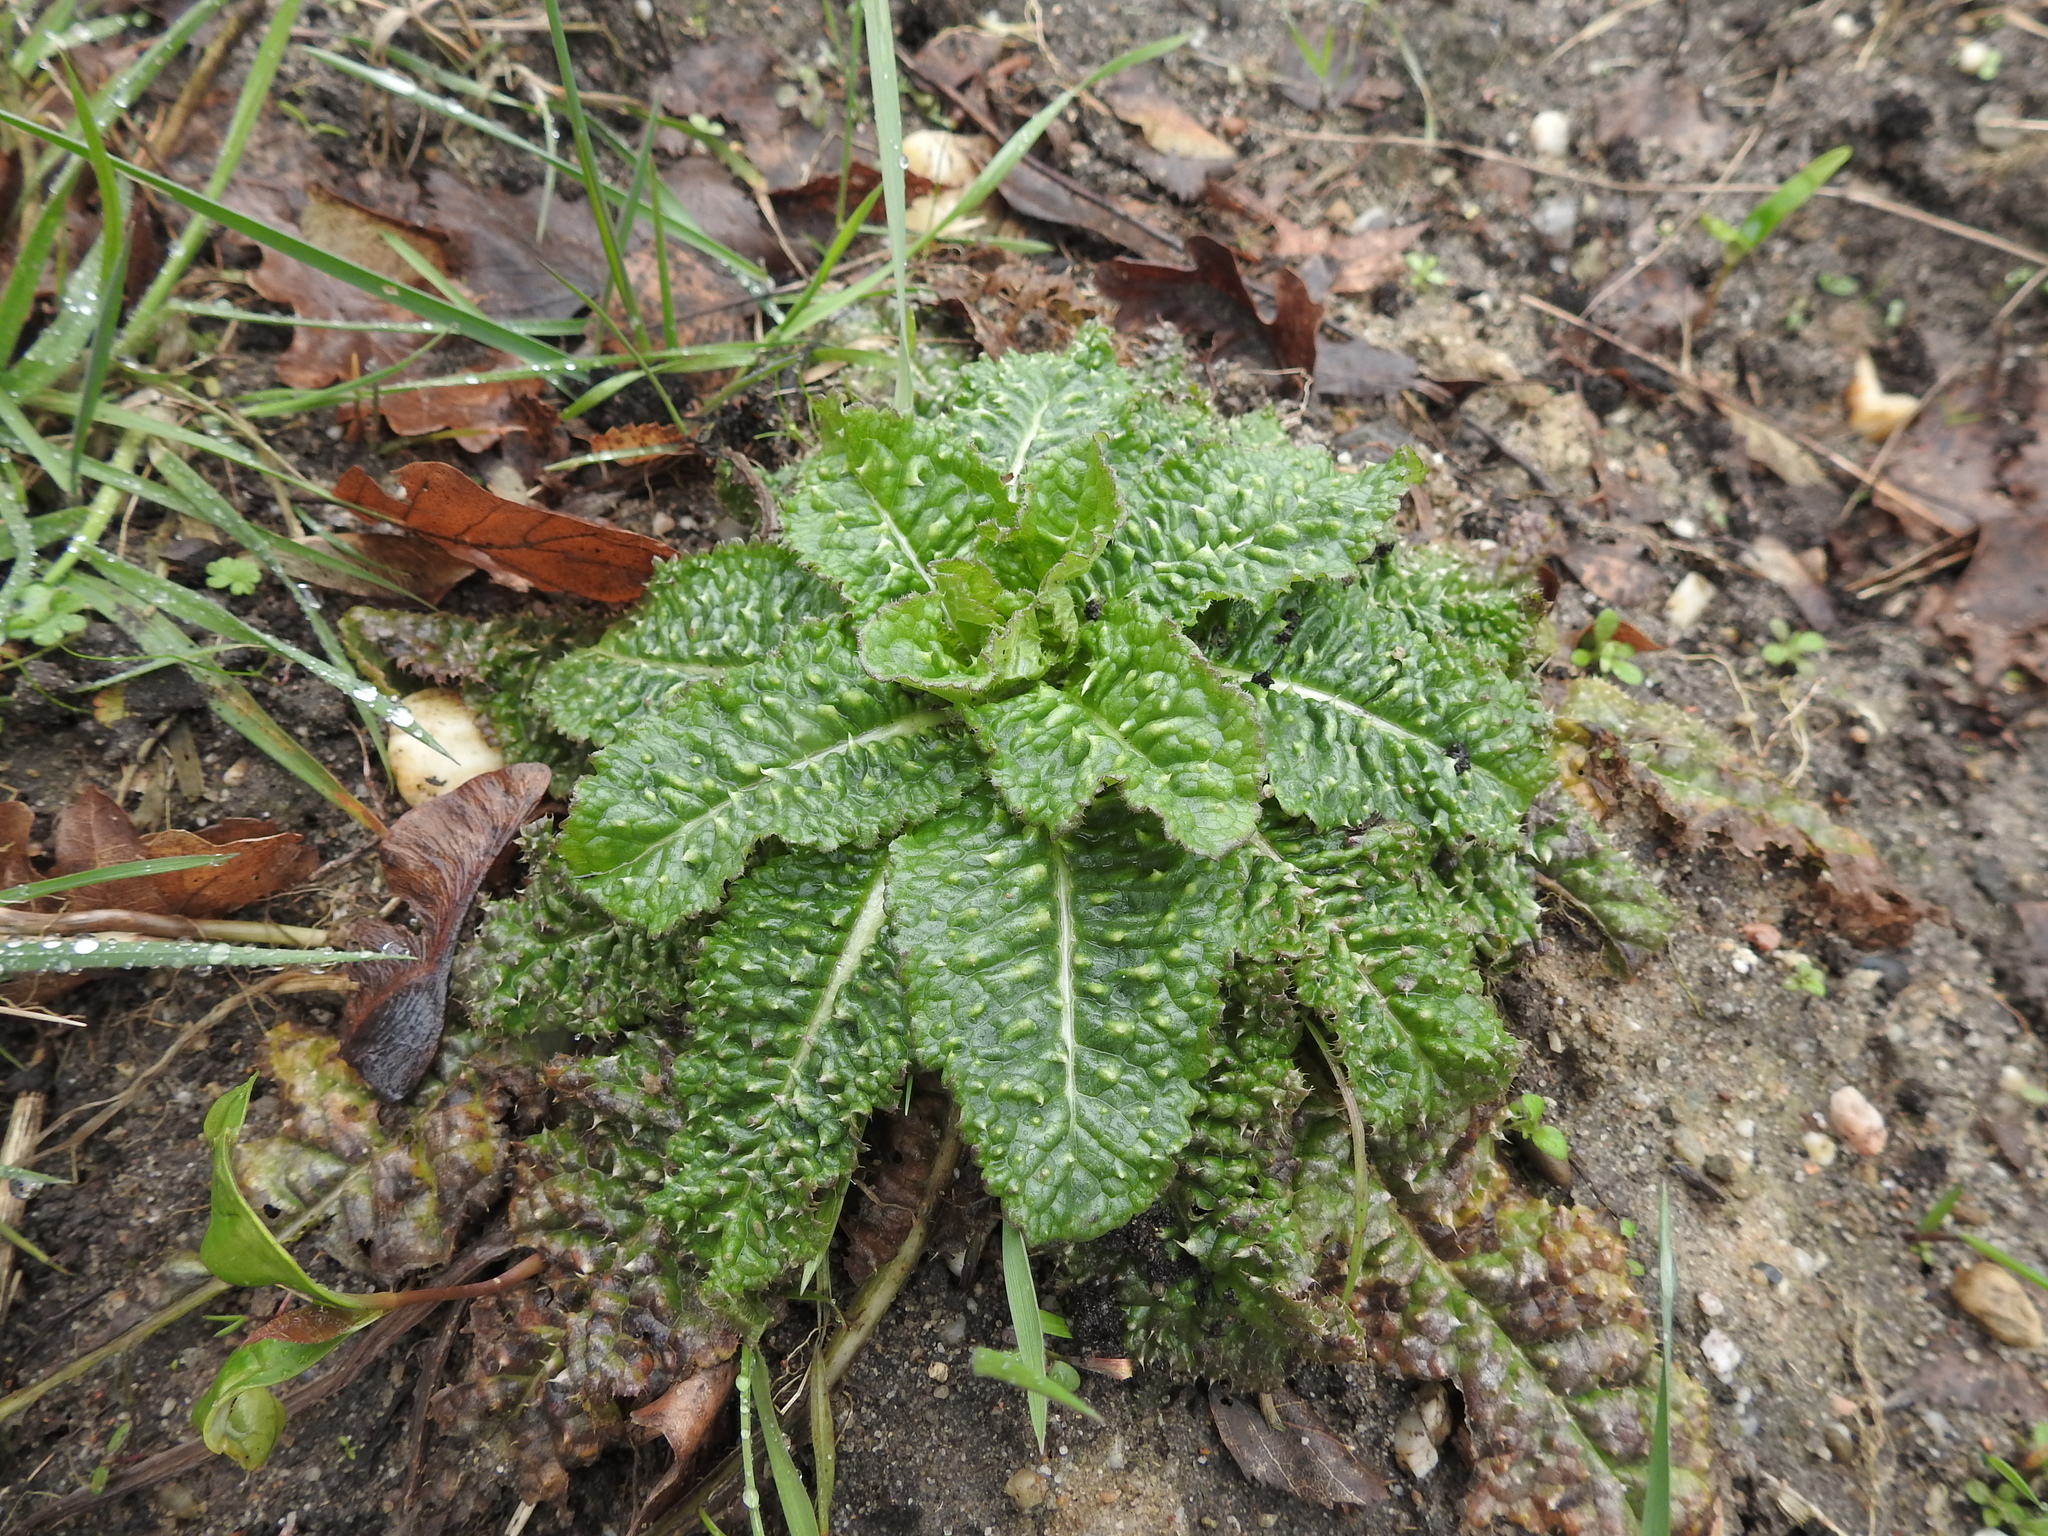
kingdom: Plantae
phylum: Tracheophyta
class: Magnoliopsida
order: Dipsacales
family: Caprifoliaceae
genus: Dipsacus
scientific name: Dipsacus fullonum
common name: Teasel
